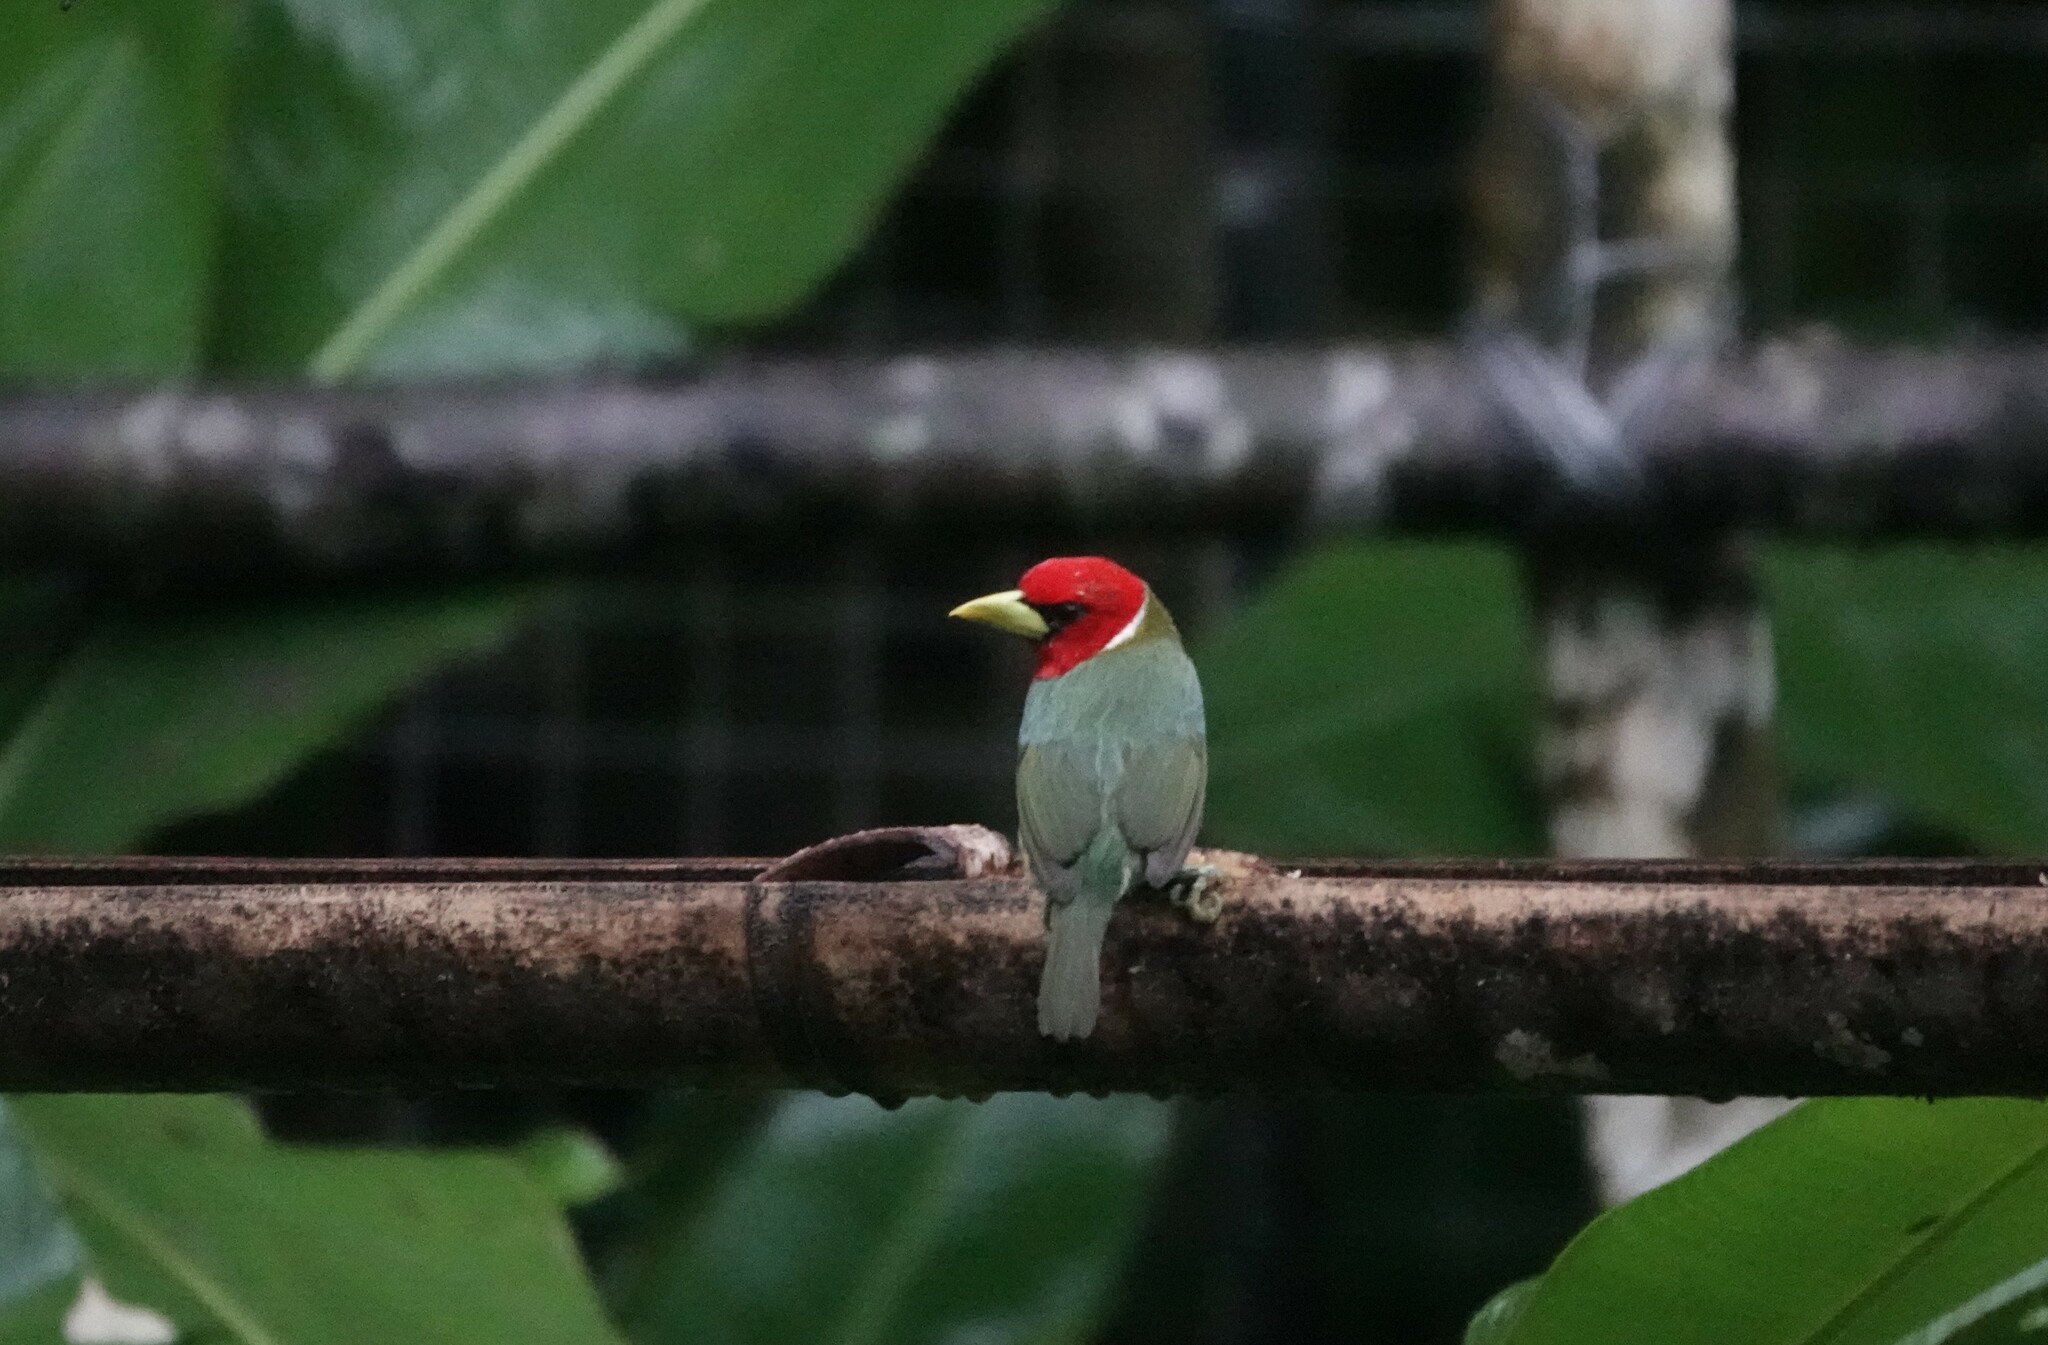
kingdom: Animalia
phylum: Chordata
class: Aves
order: Piciformes
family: Capitonidae
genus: Eubucco
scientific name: Eubucco bourcierii
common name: Red-headed barbet
